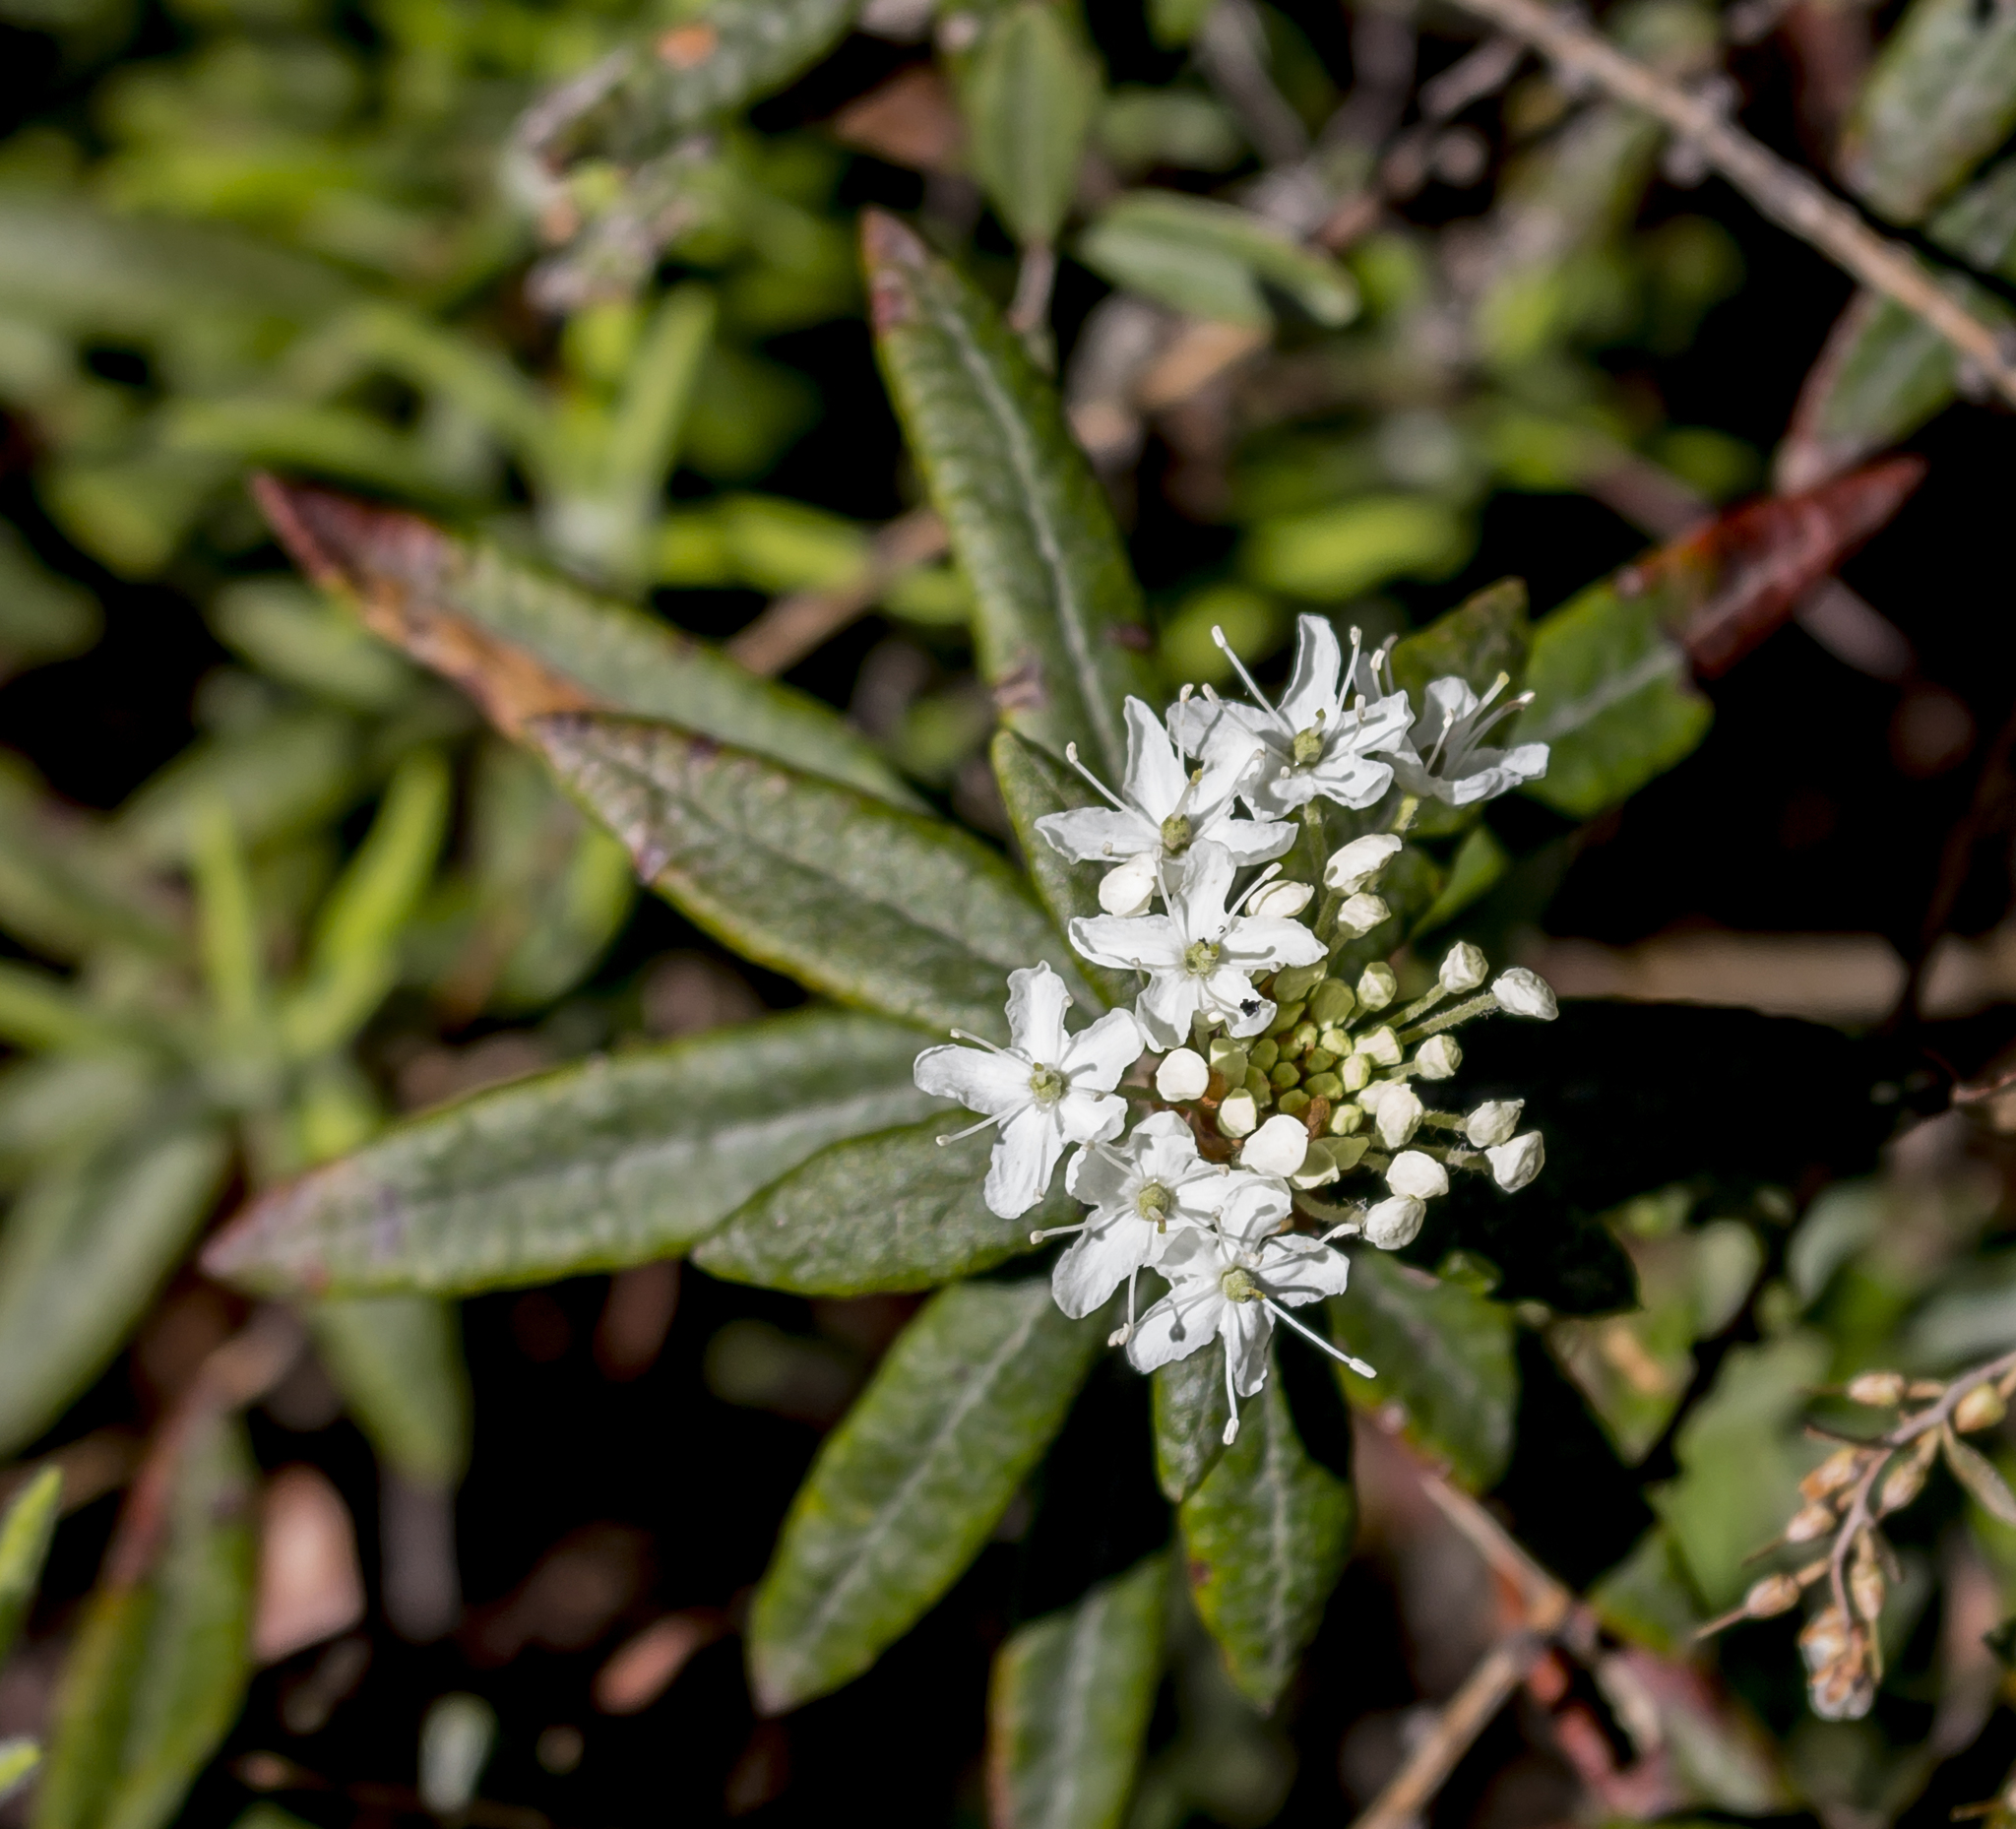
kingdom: Plantae
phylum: Tracheophyta
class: Magnoliopsida
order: Ericales
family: Ericaceae
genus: Rhododendron
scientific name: Rhododendron groenlandicum
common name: Bog labrador tea
